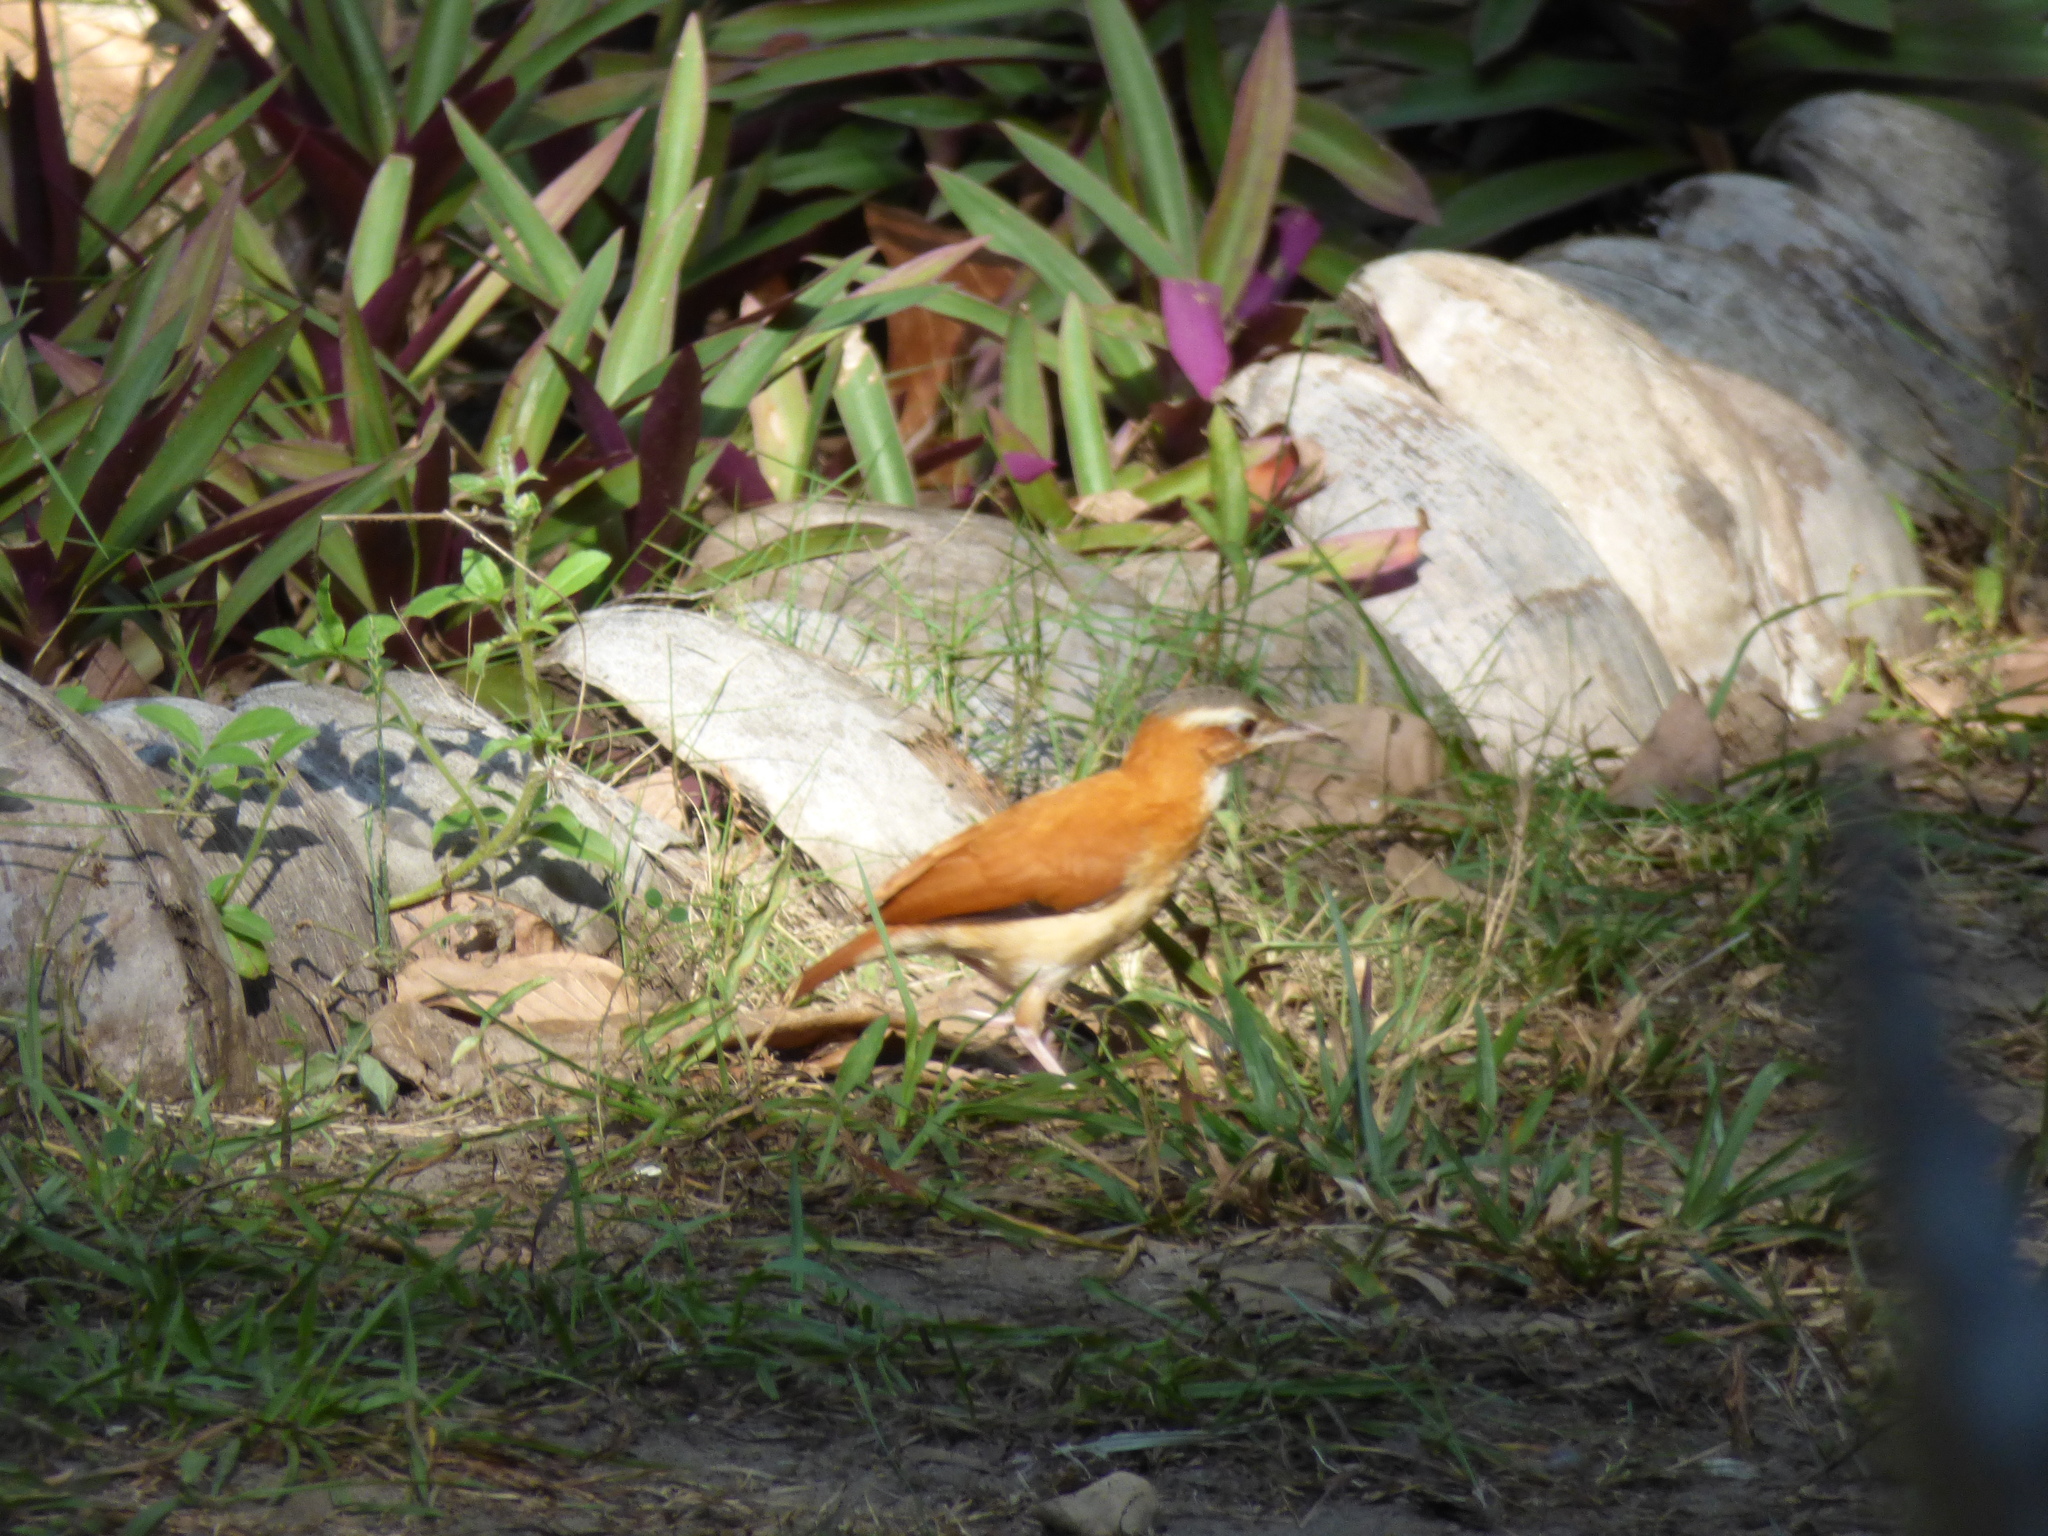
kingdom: Animalia
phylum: Chordata
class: Aves
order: Passeriformes
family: Furnariidae
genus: Furnarius
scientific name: Furnarius longirostris
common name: Caribbean hornero
